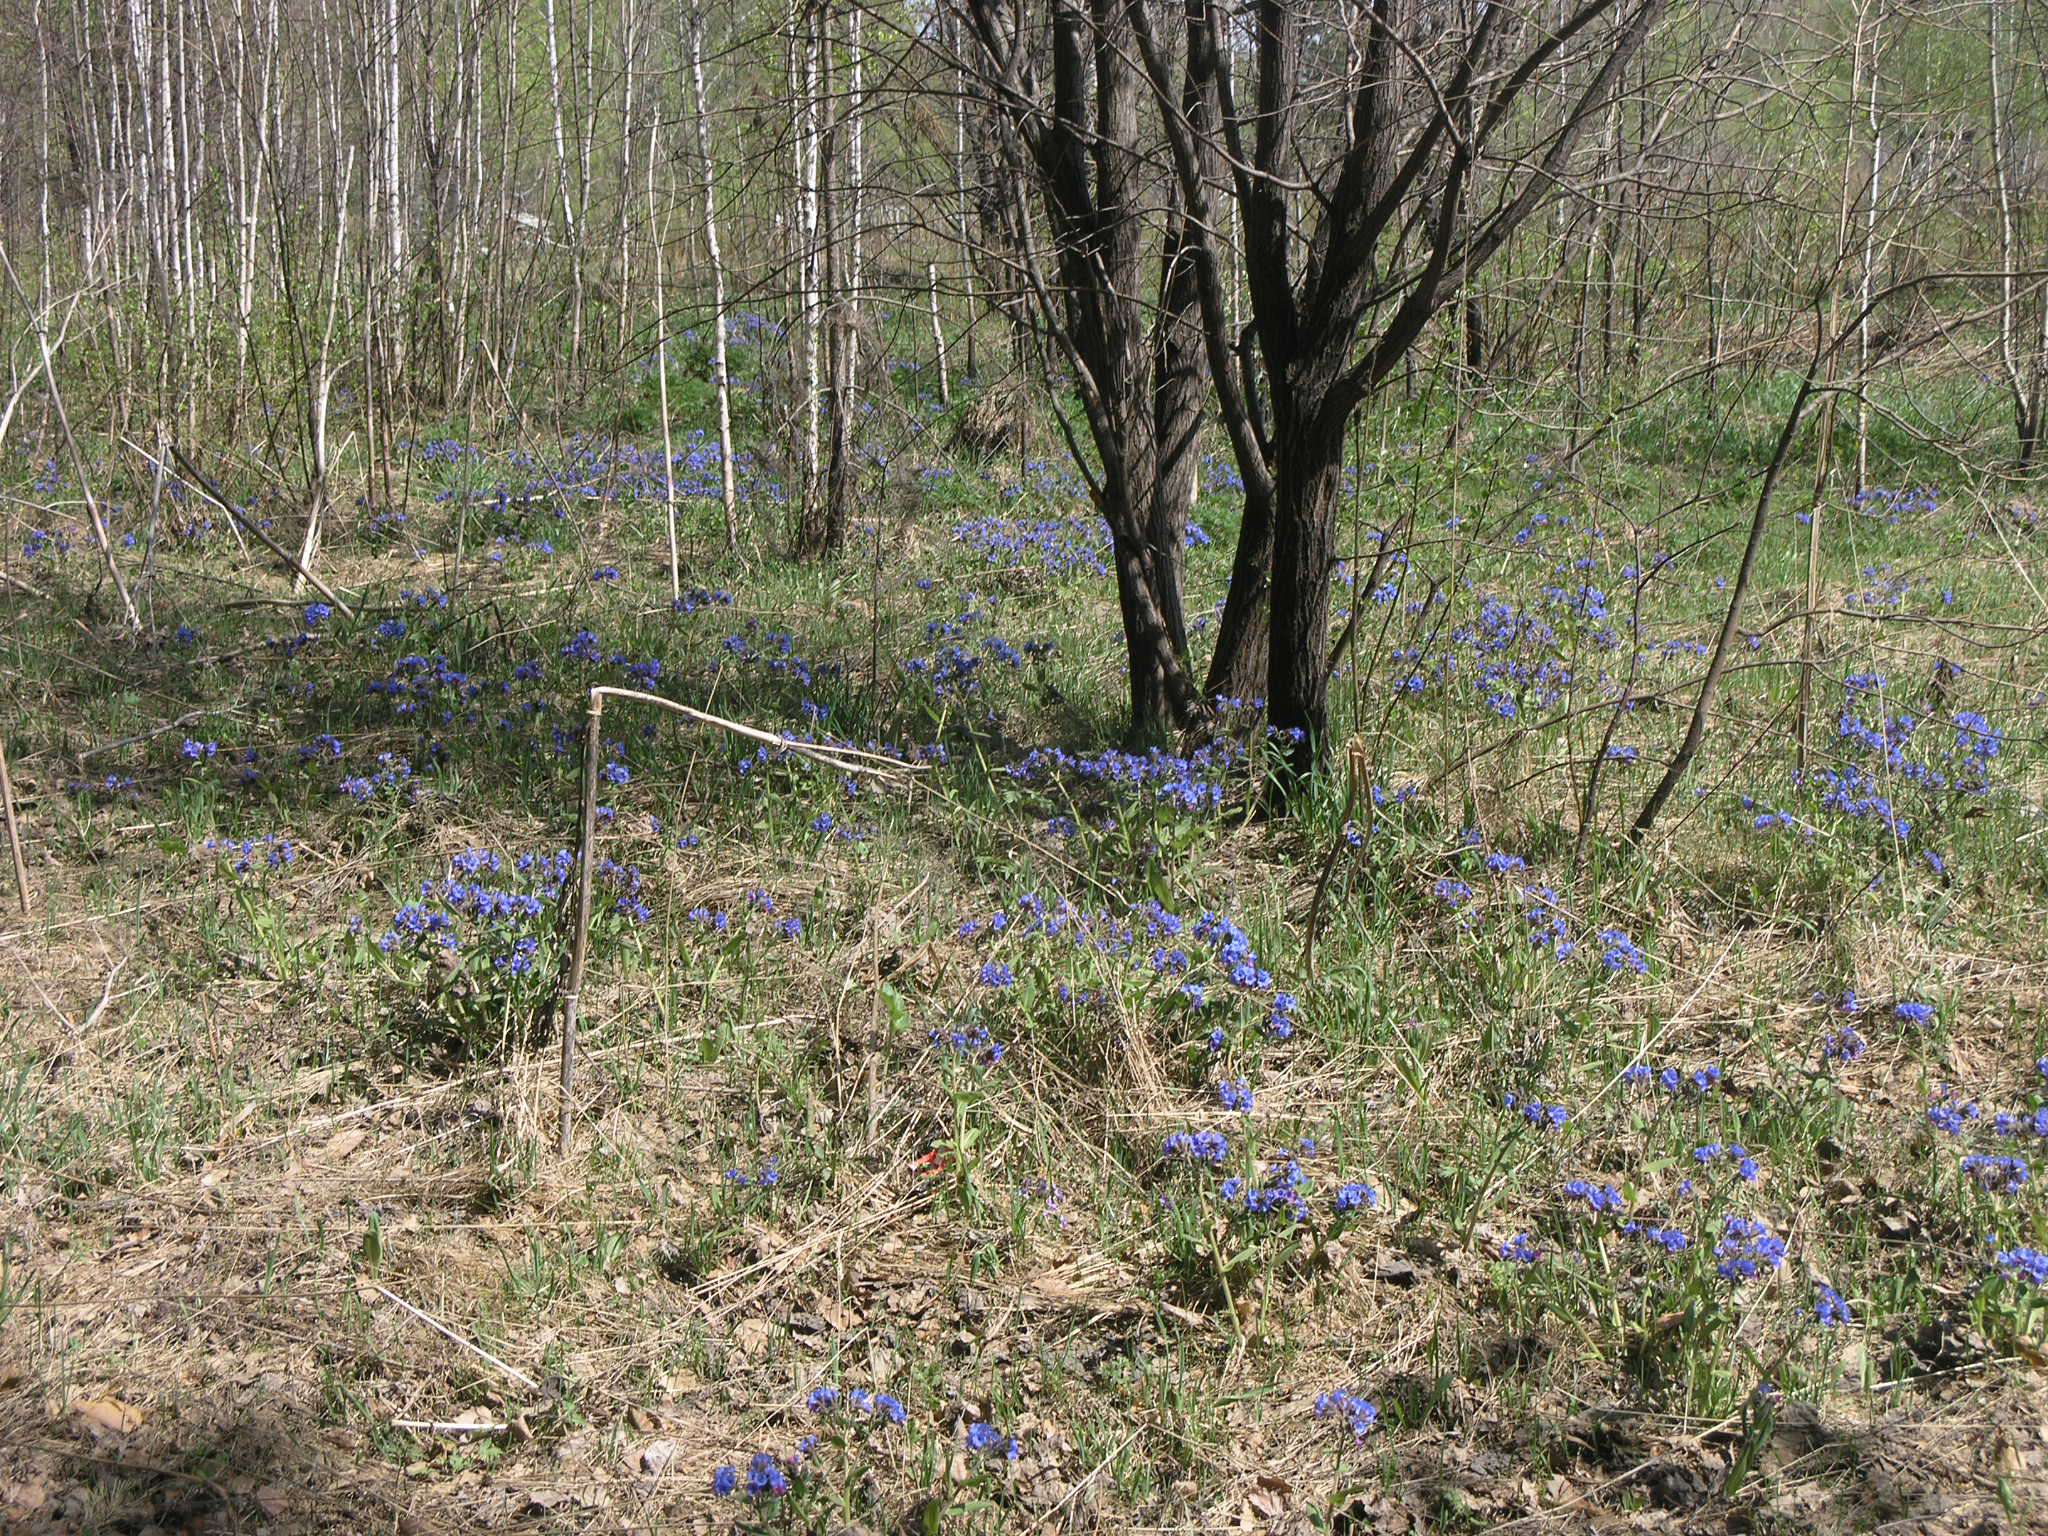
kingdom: Plantae
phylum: Tracheophyta
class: Magnoliopsida
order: Malpighiales
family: Salicaceae
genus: Salix
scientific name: Salix caprea
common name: Goat willow
